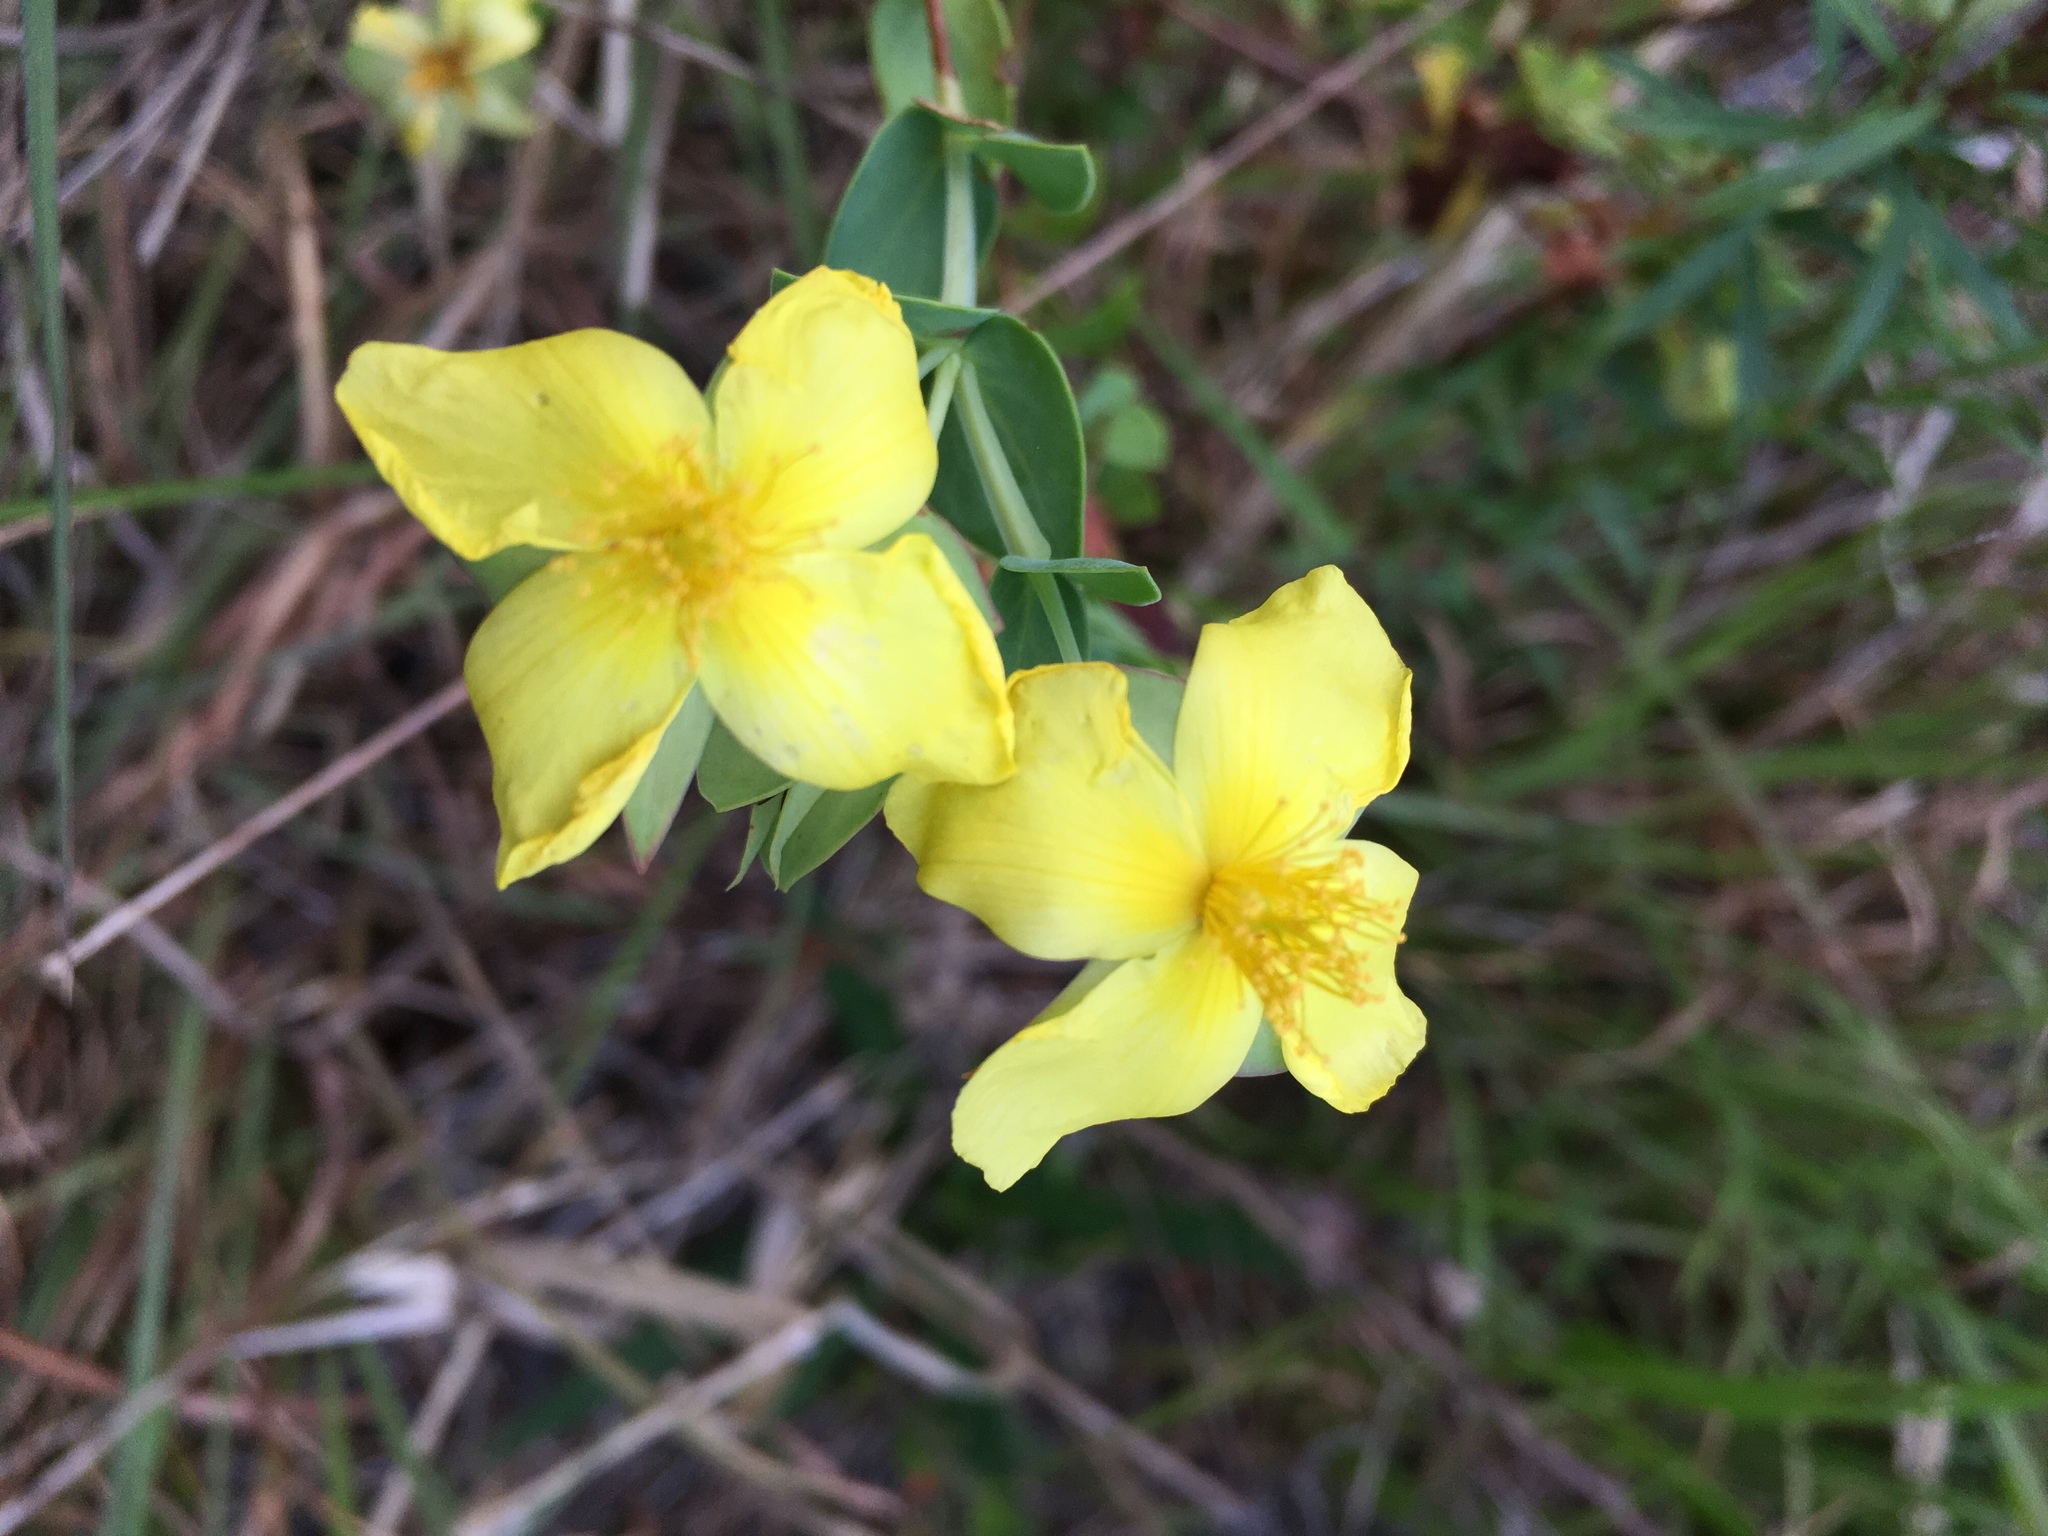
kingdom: Plantae
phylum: Tracheophyta
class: Magnoliopsida
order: Malpighiales
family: Hypericaceae
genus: Hypericum
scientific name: Hypericum tetrapetalum
